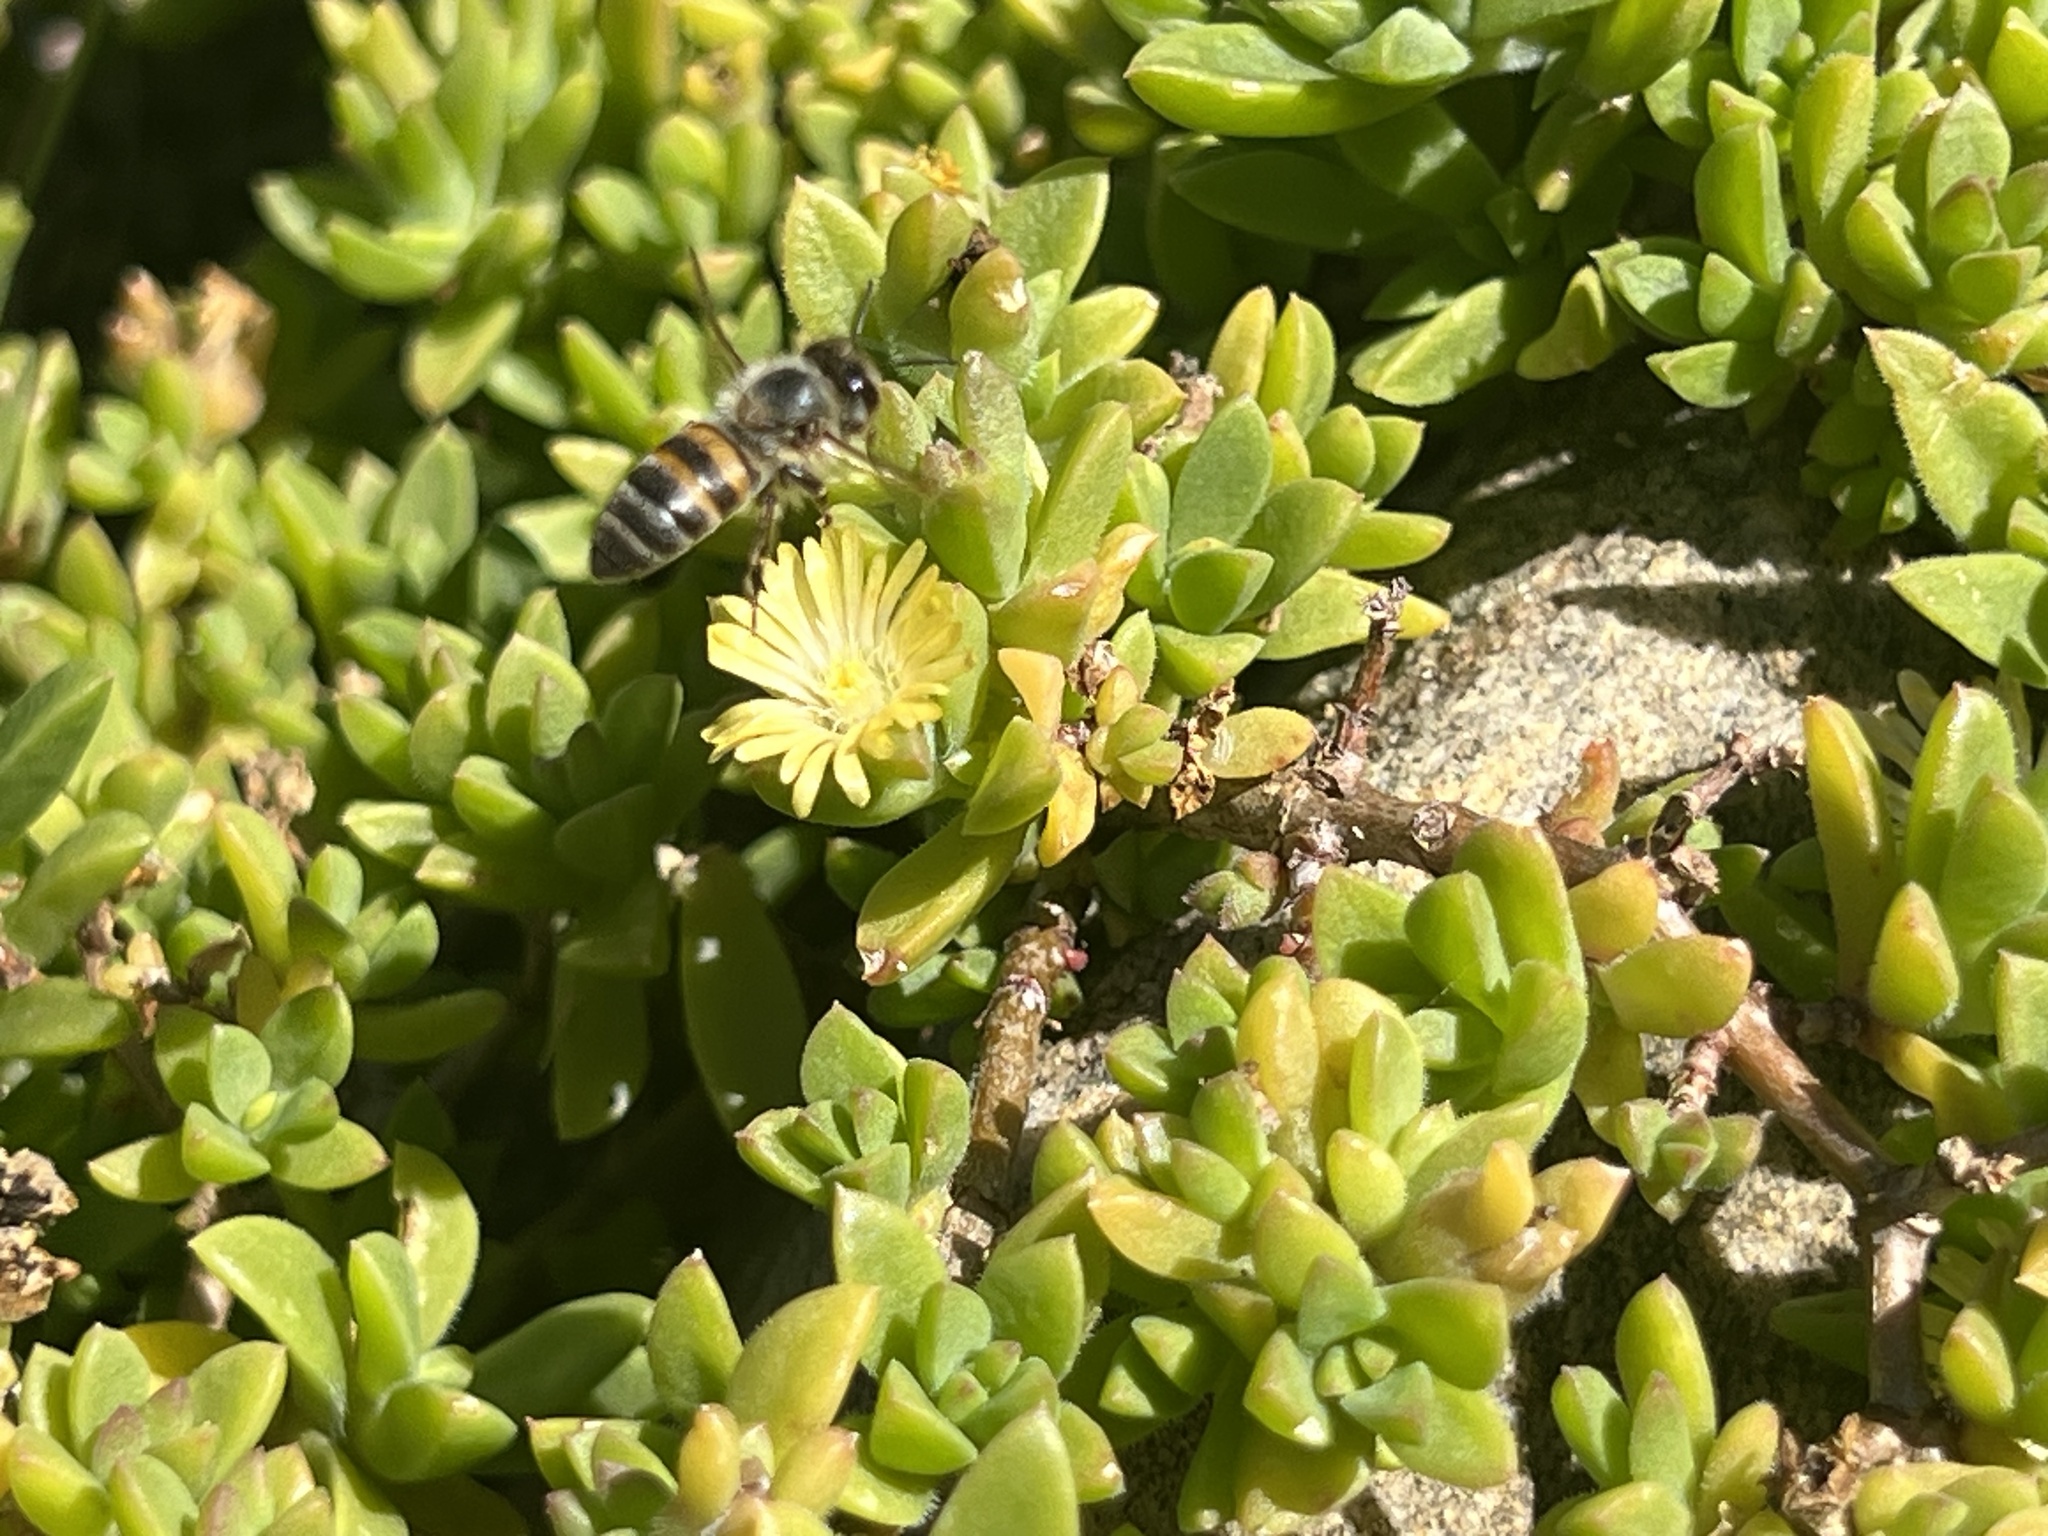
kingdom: Animalia
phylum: Arthropoda
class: Insecta
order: Hymenoptera
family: Apidae
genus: Apis
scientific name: Apis mellifera
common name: Honey bee
